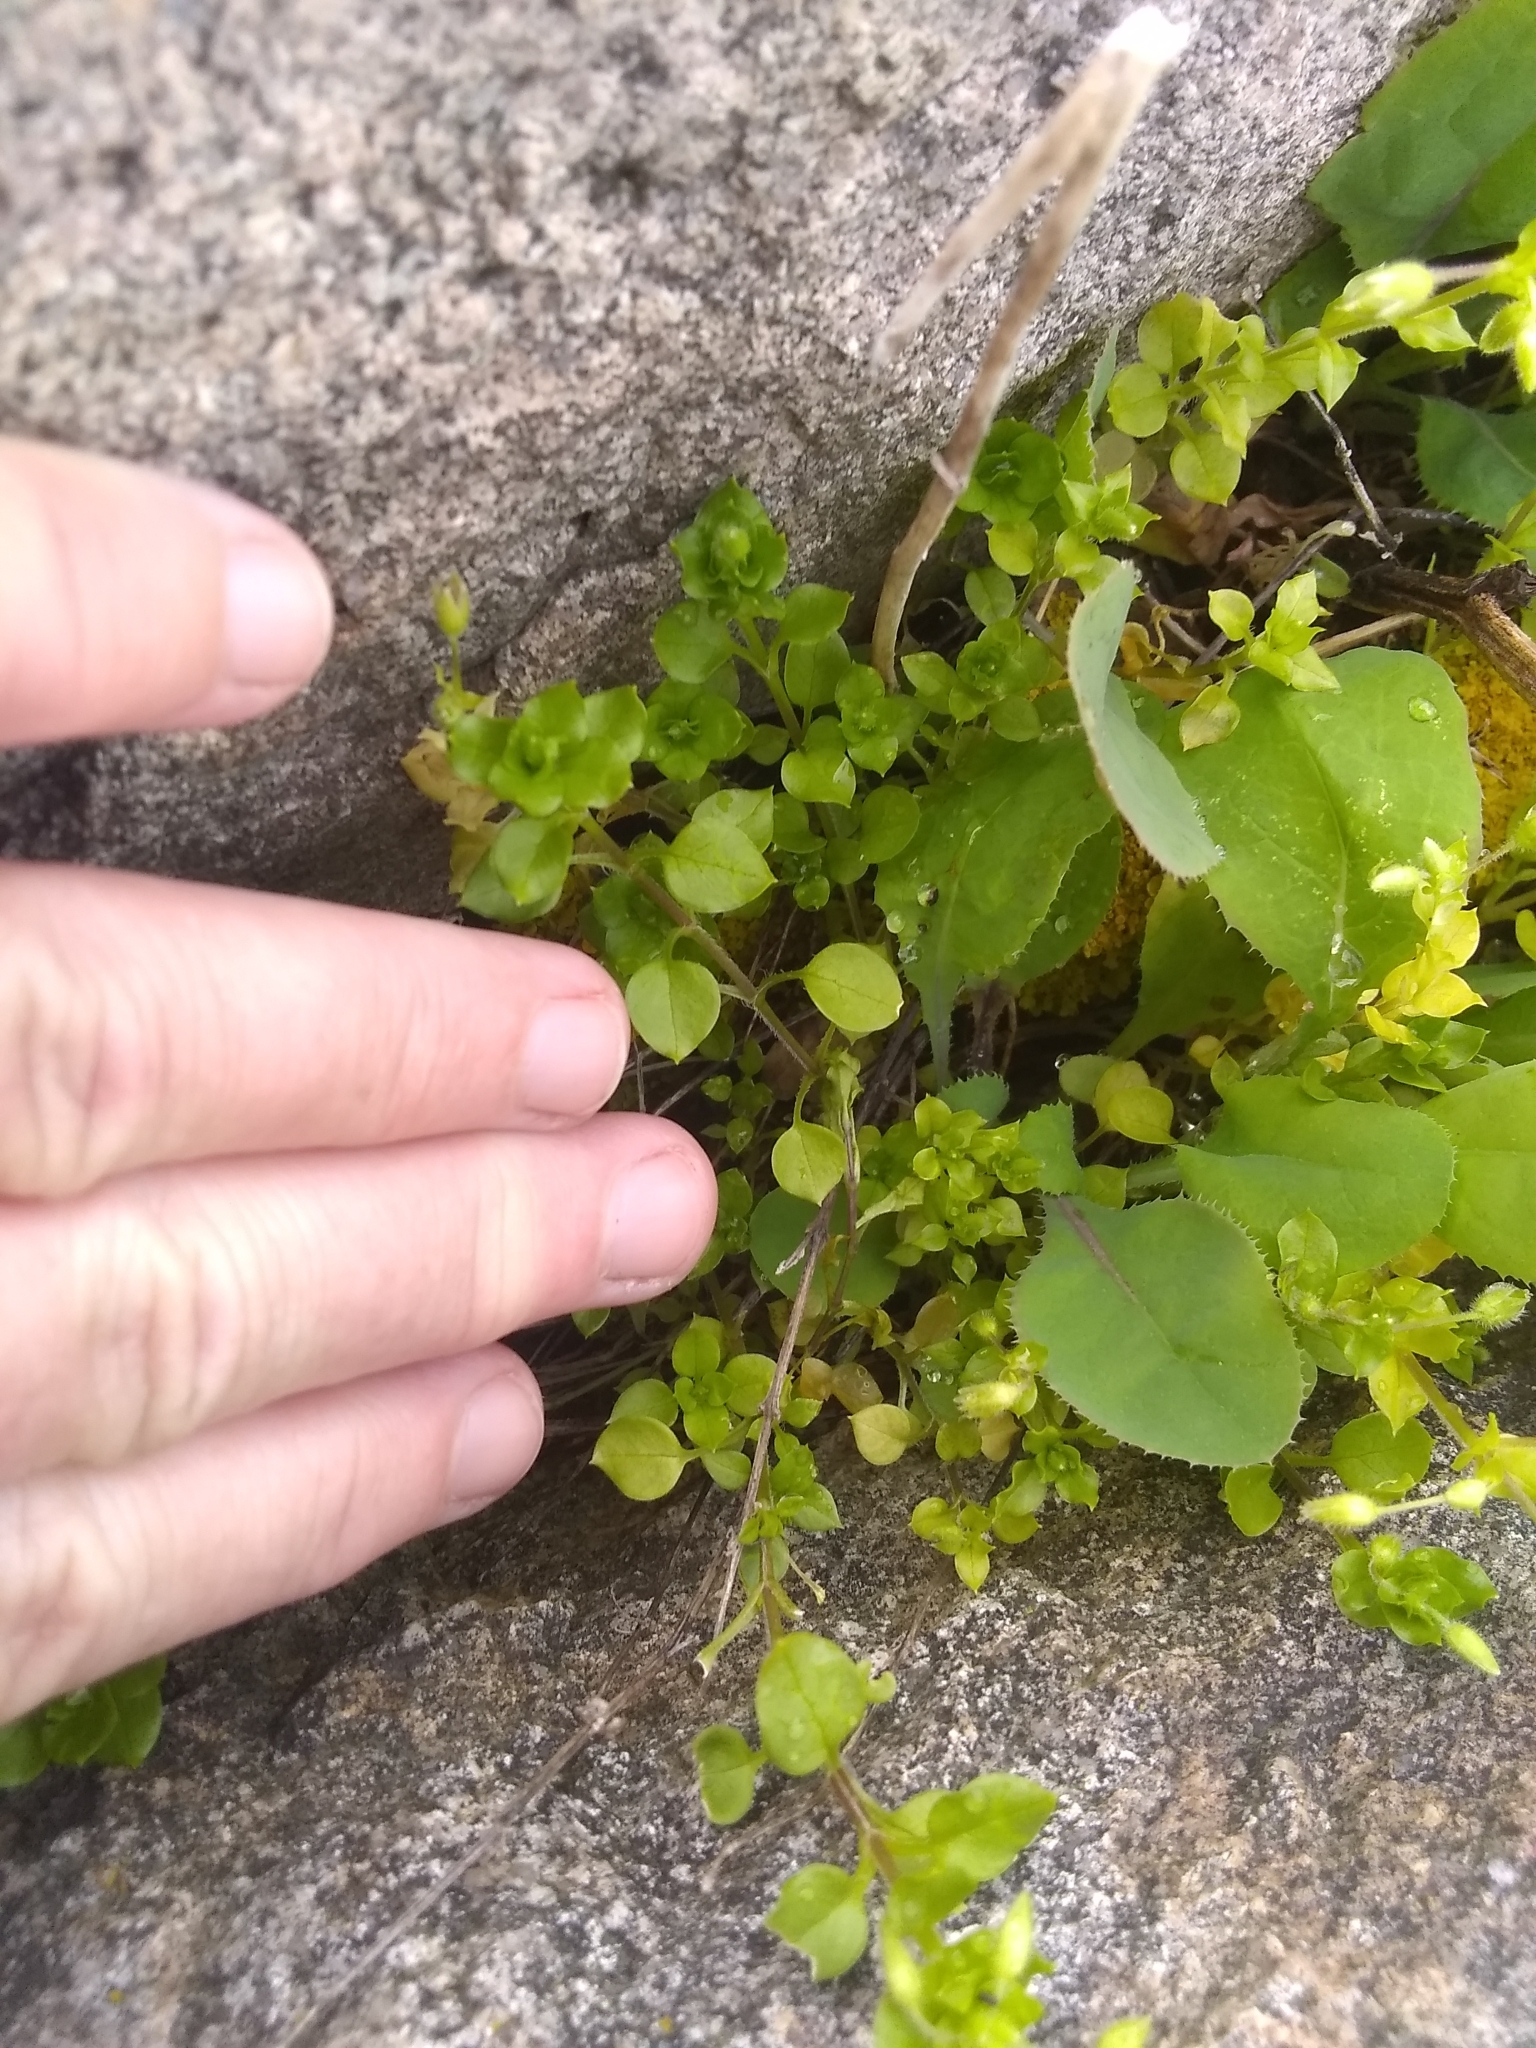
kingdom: Plantae
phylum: Tracheophyta
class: Magnoliopsida
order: Caryophyllales
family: Caryophyllaceae
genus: Stellaria
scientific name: Stellaria media
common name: Common chickweed
